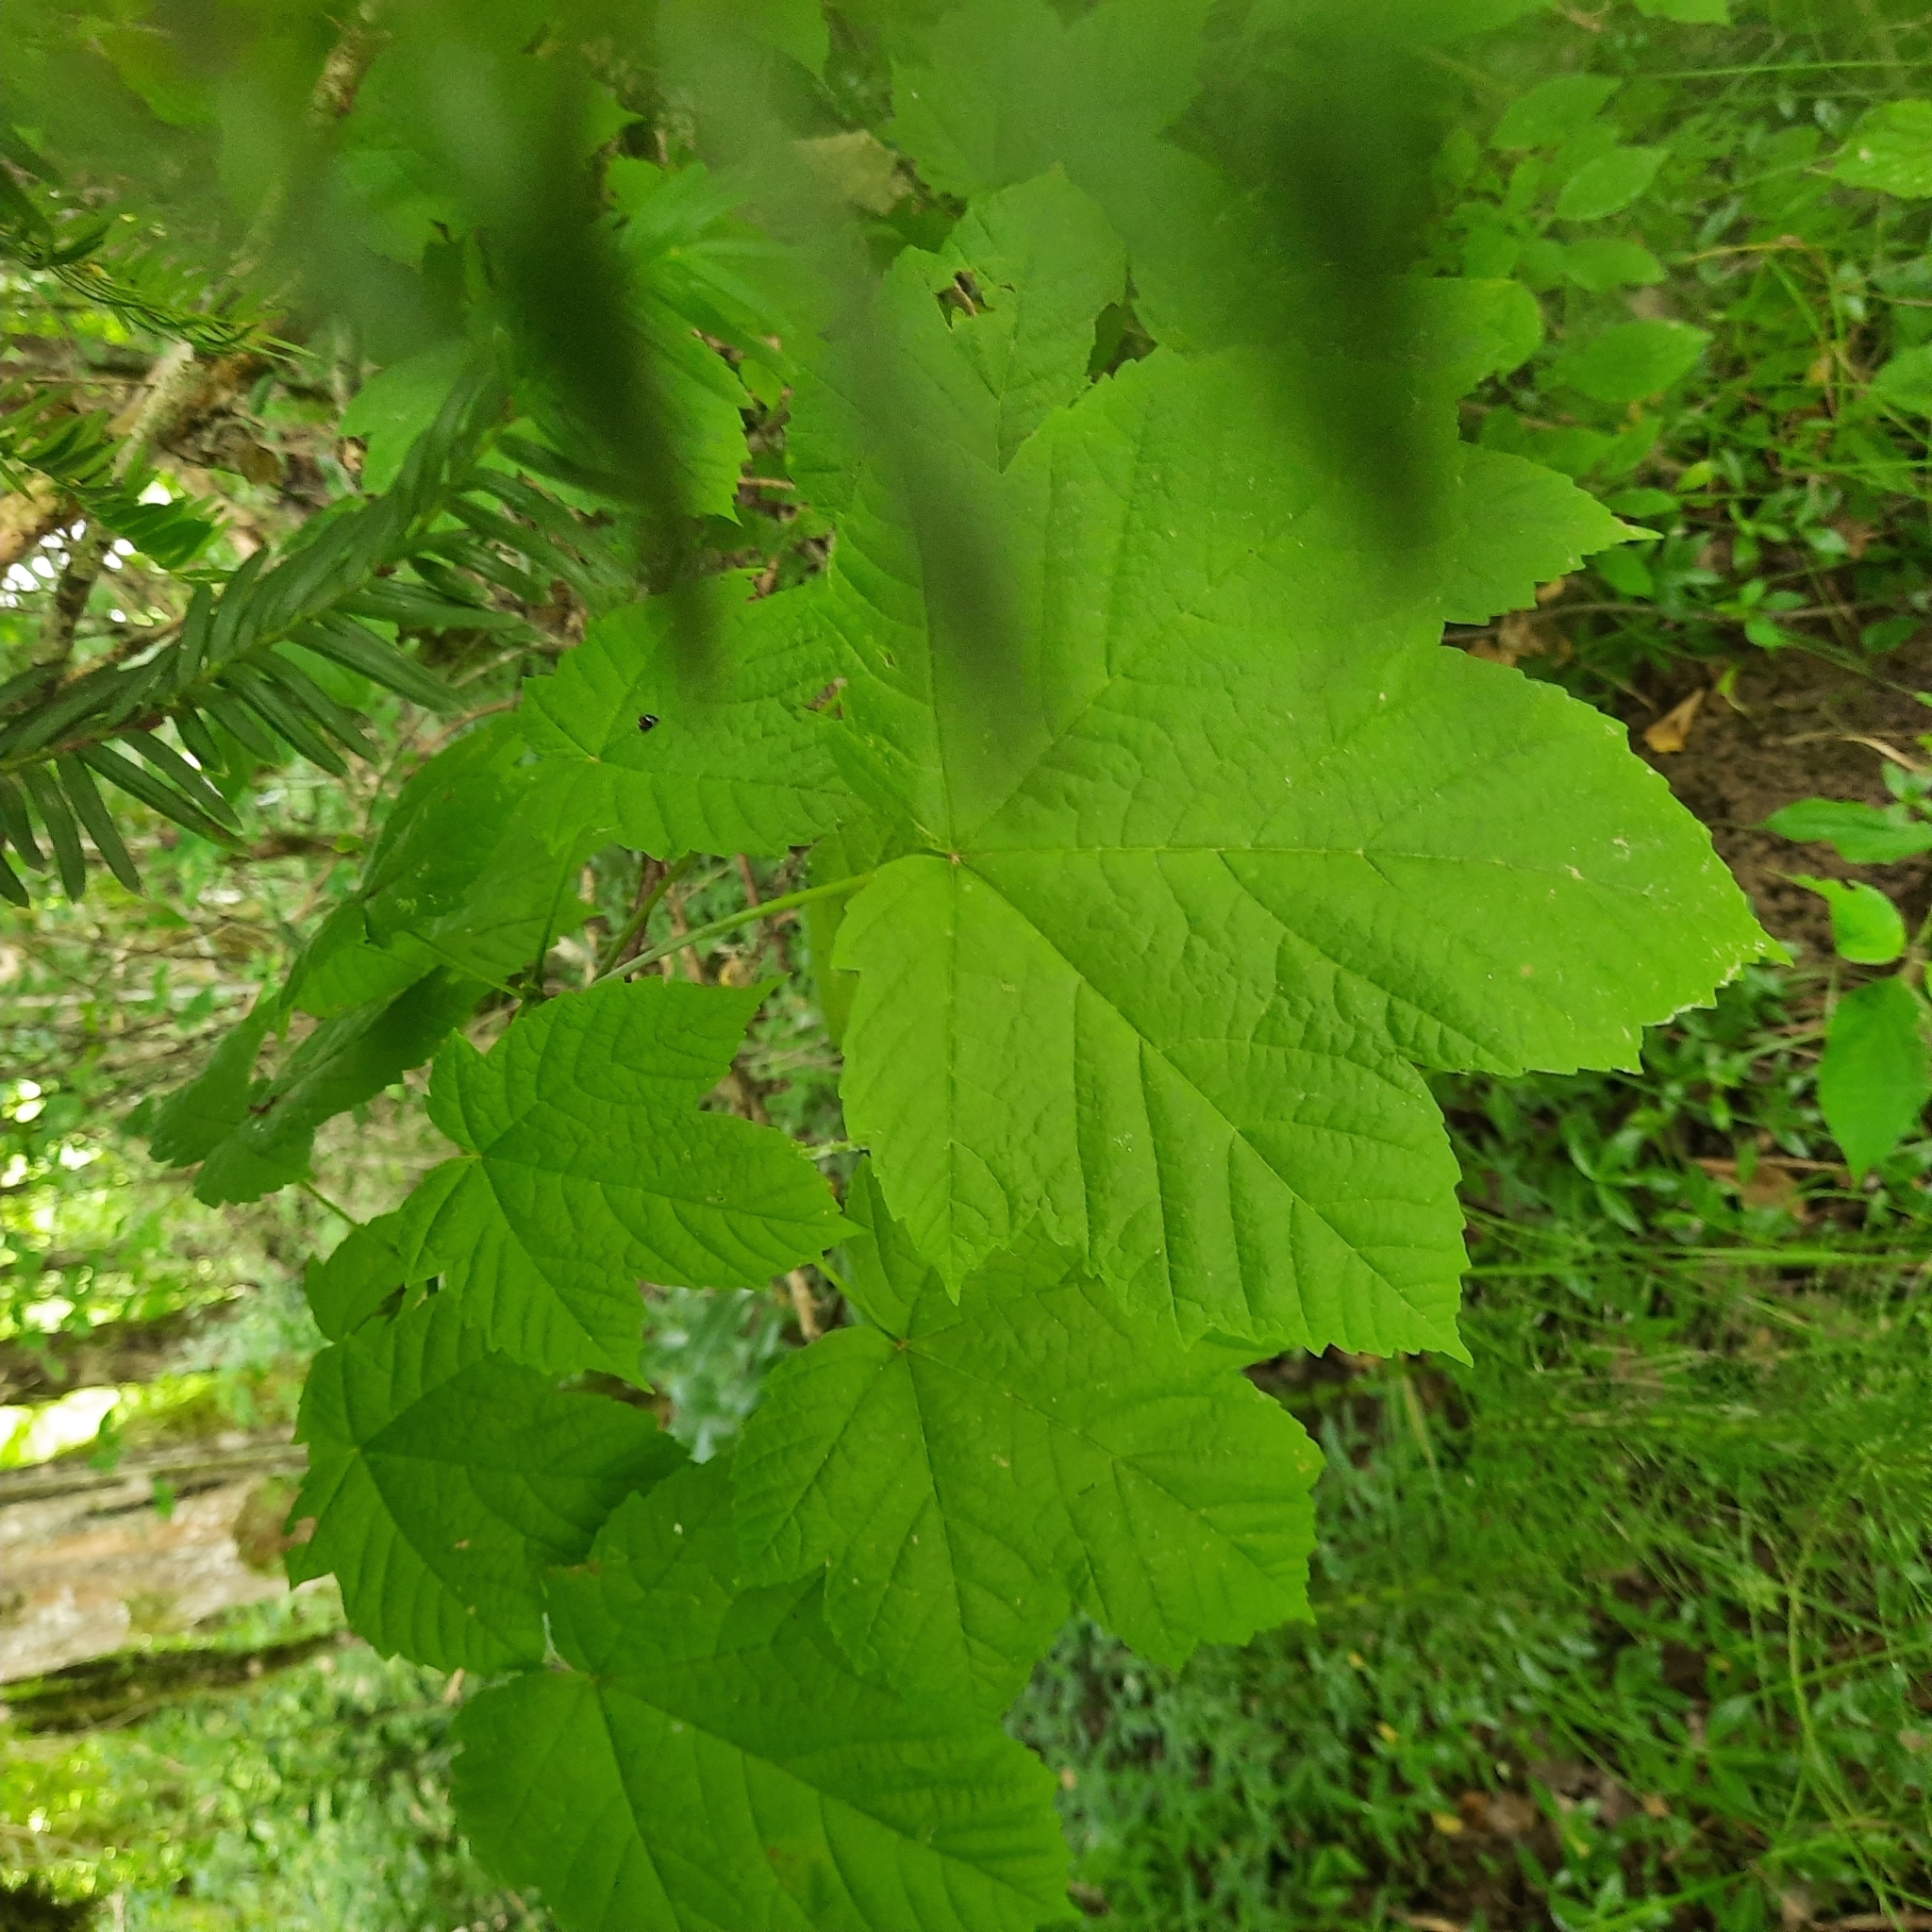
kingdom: Plantae
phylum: Tracheophyta
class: Magnoliopsida
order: Sapindales
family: Sapindaceae
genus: Acer
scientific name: Acer pseudoplatanus
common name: Sycamore
